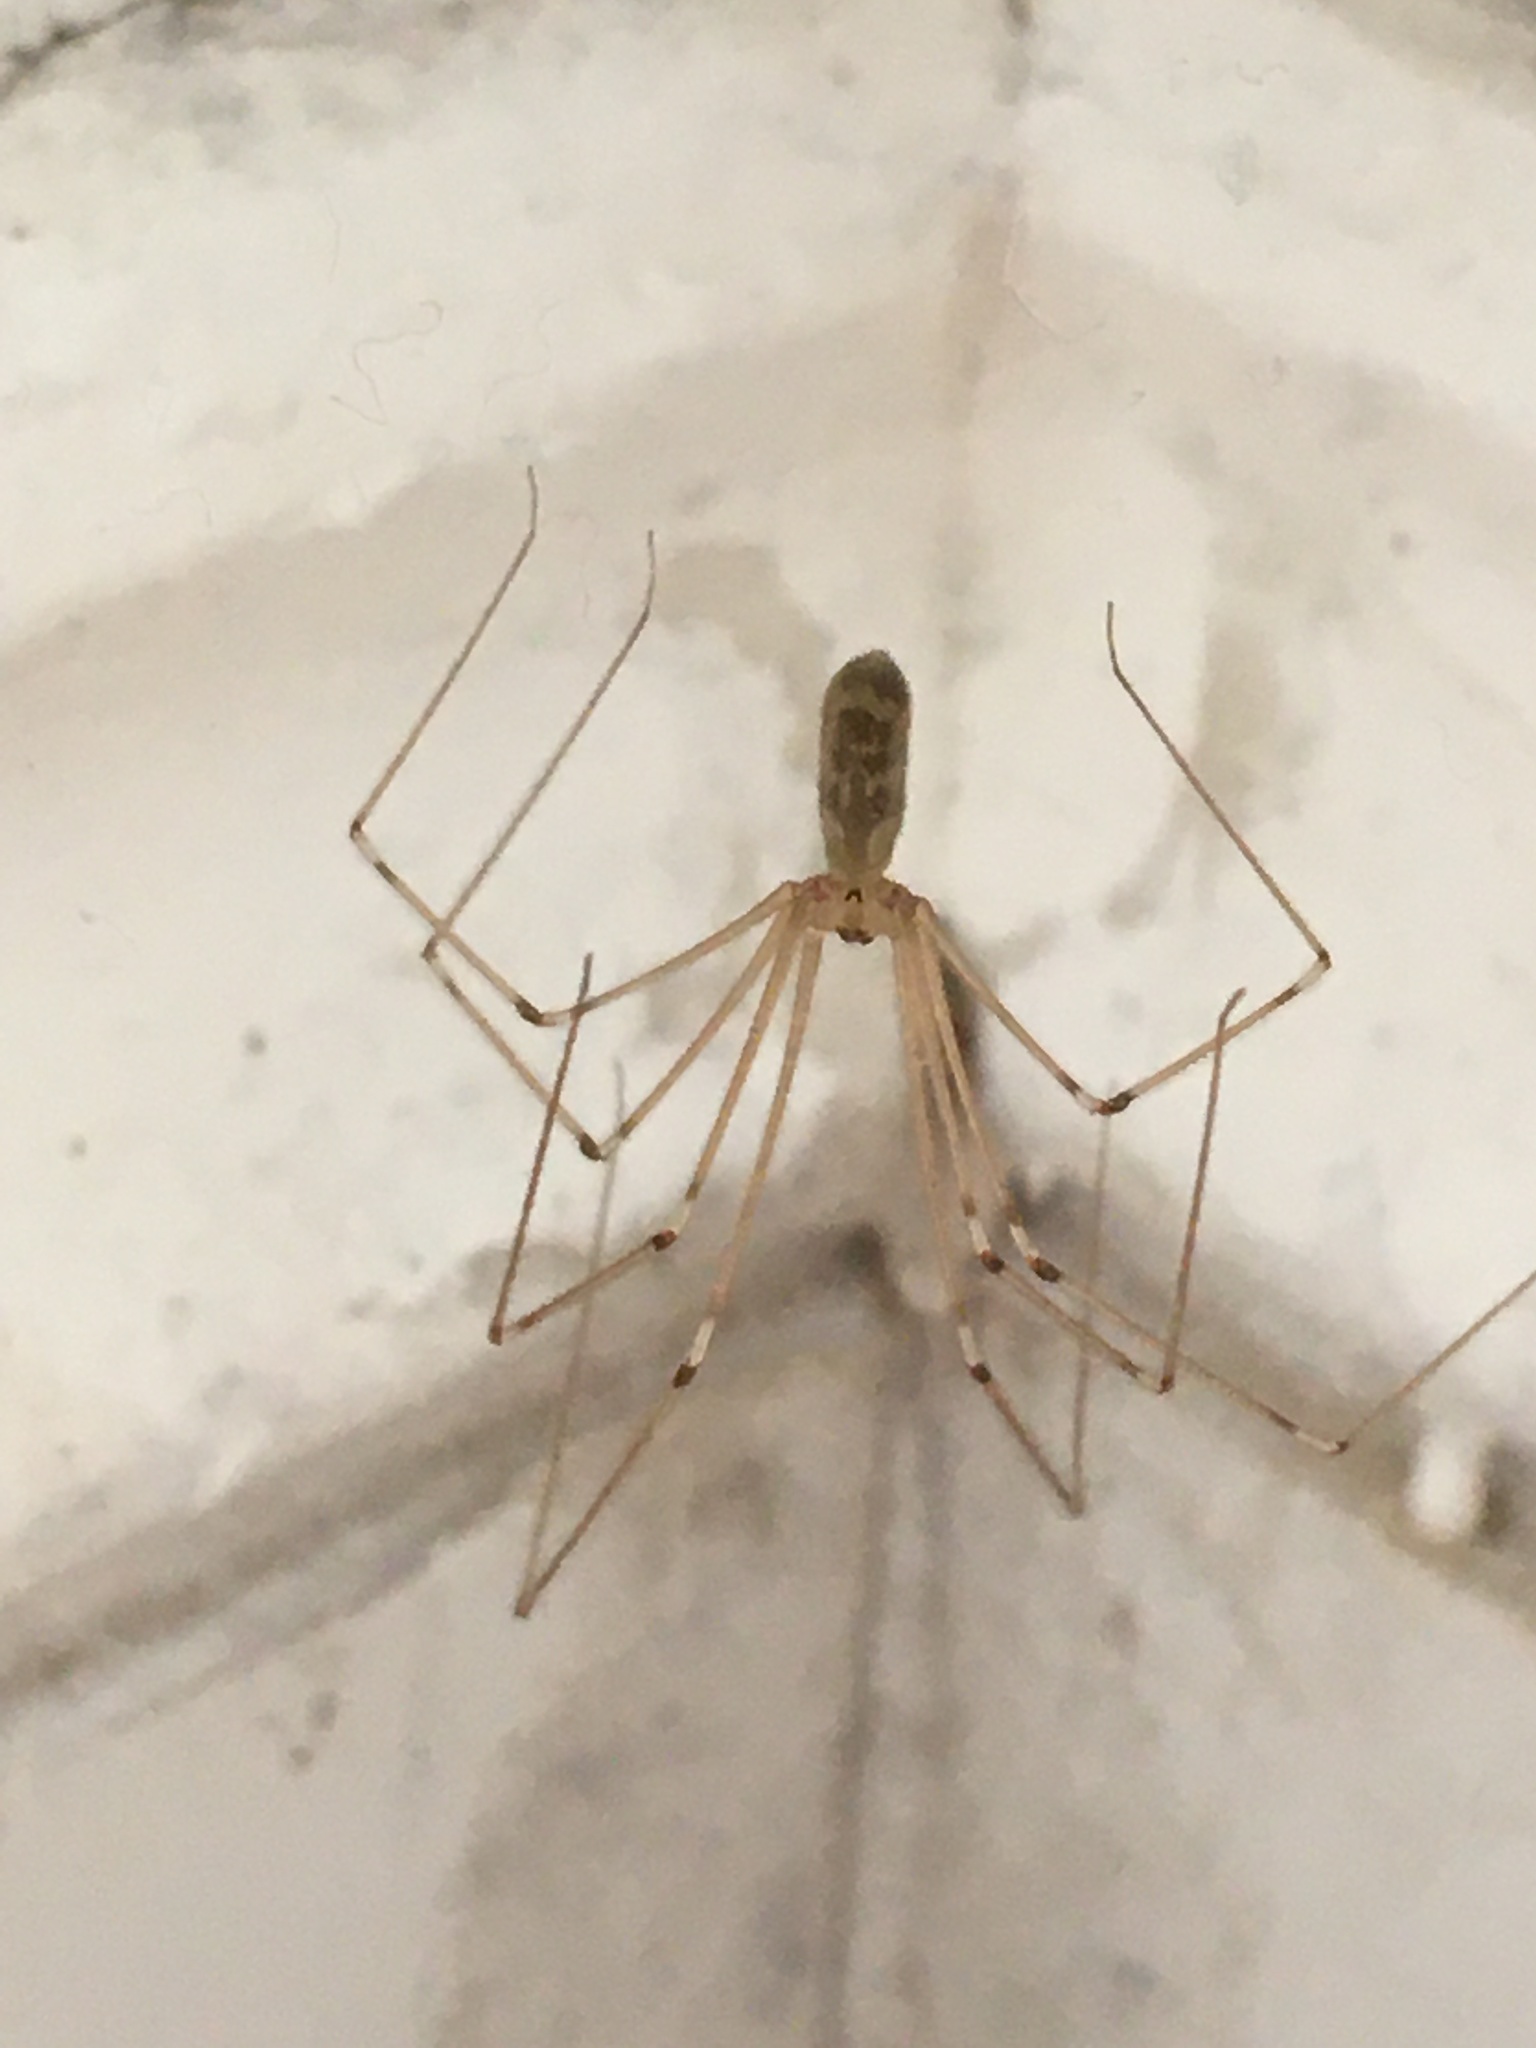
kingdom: Animalia
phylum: Arthropoda
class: Arachnida
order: Araneae
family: Pholcidae
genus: Pholcus
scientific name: Pholcus phalangioides
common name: Longbodied cellar spider
